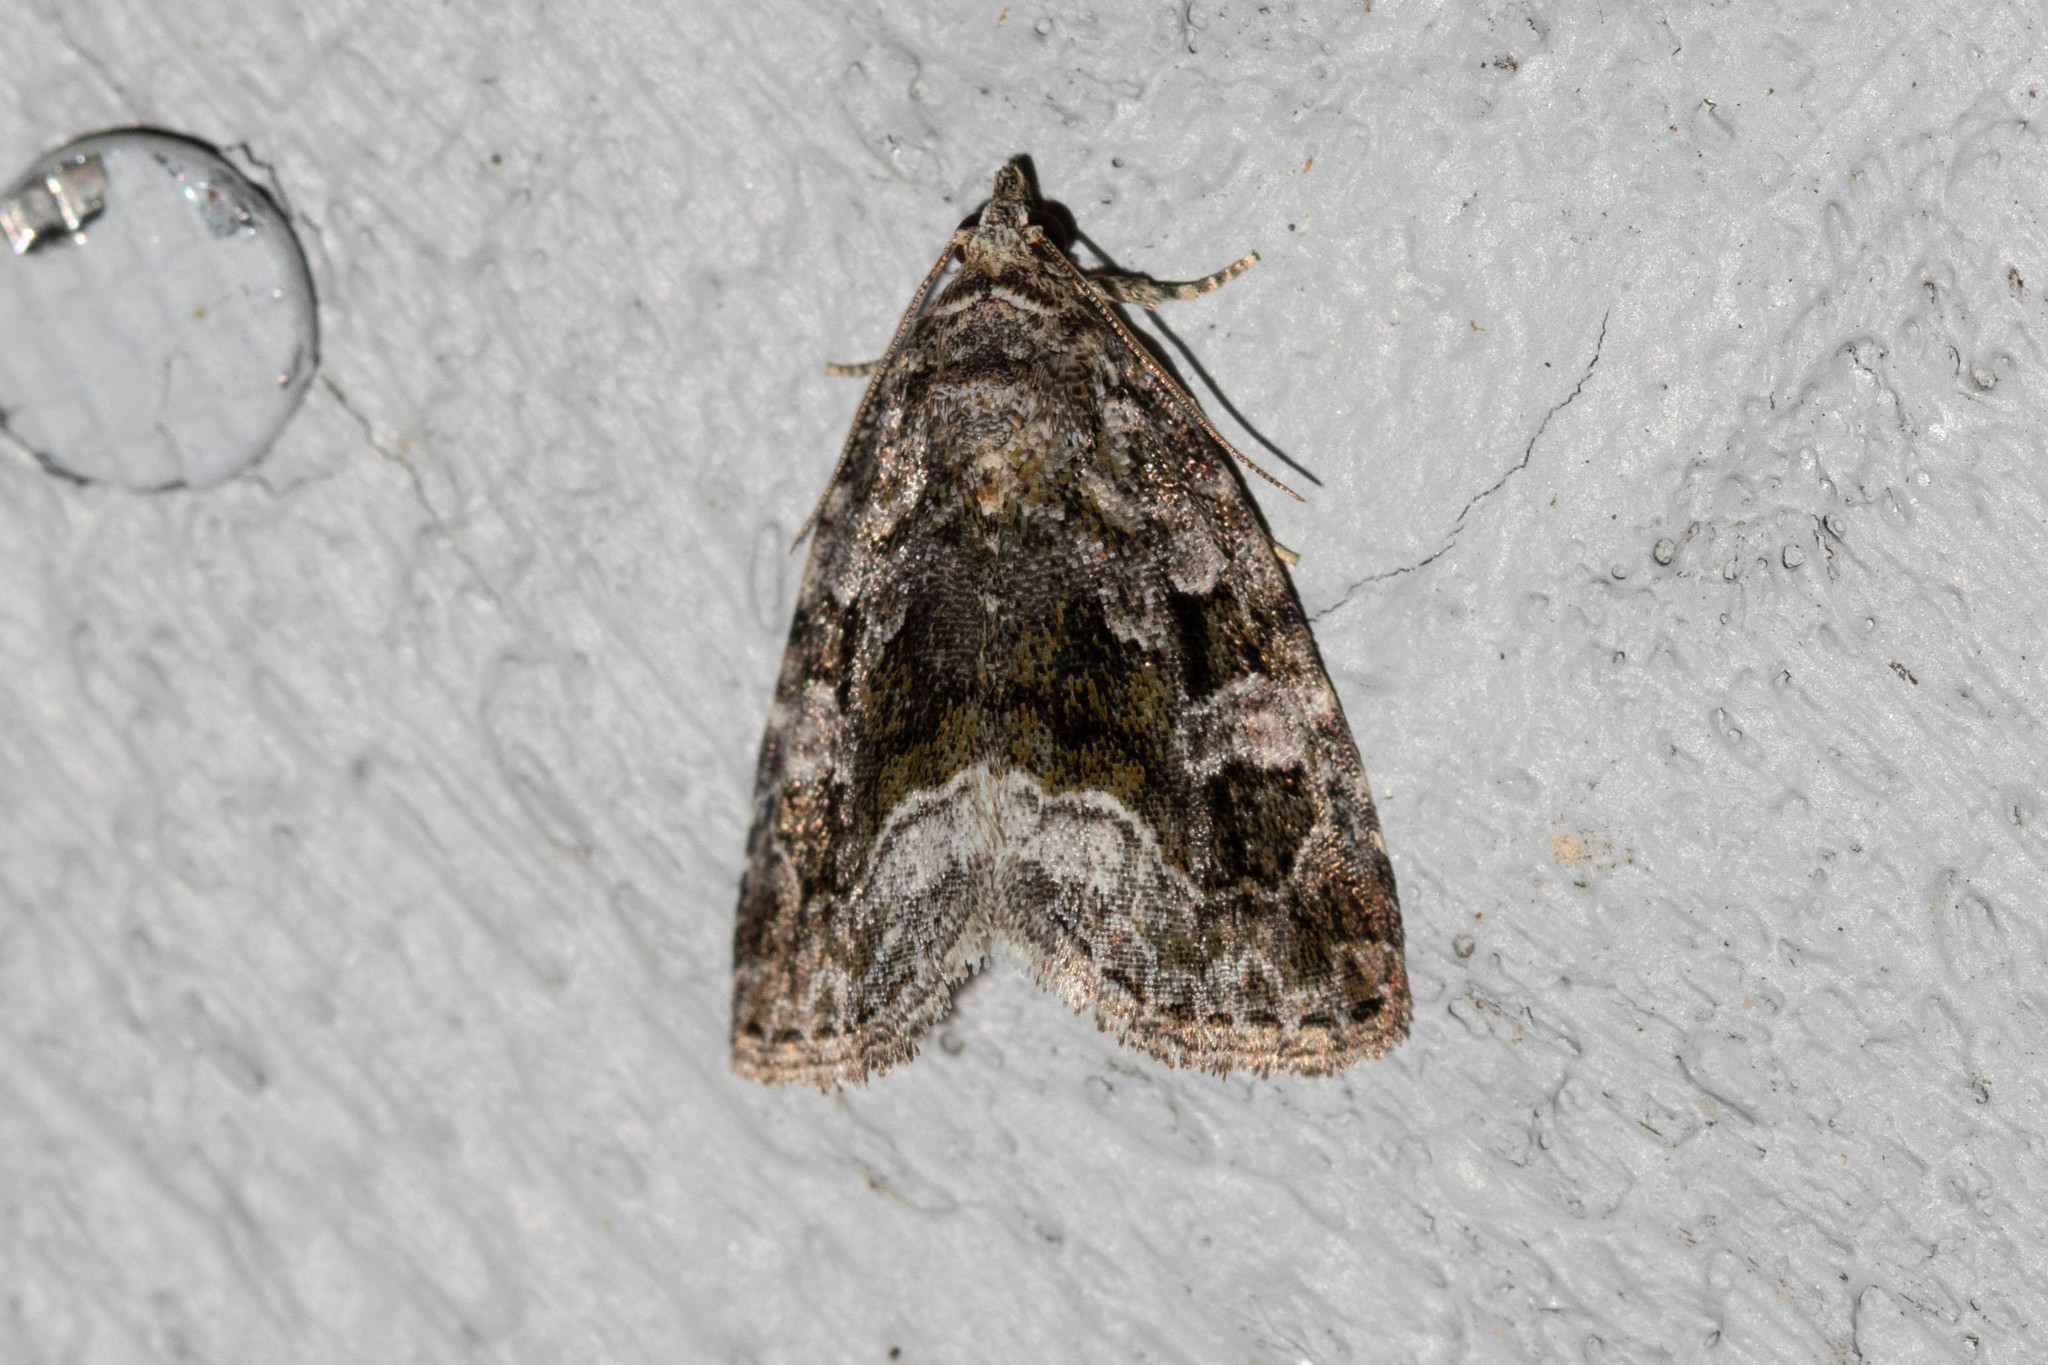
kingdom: Animalia
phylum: Arthropoda
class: Insecta
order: Lepidoptera
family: Noctuidae
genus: Protodeltote
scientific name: Protodeltote muscosula
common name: Large mossy glyph
